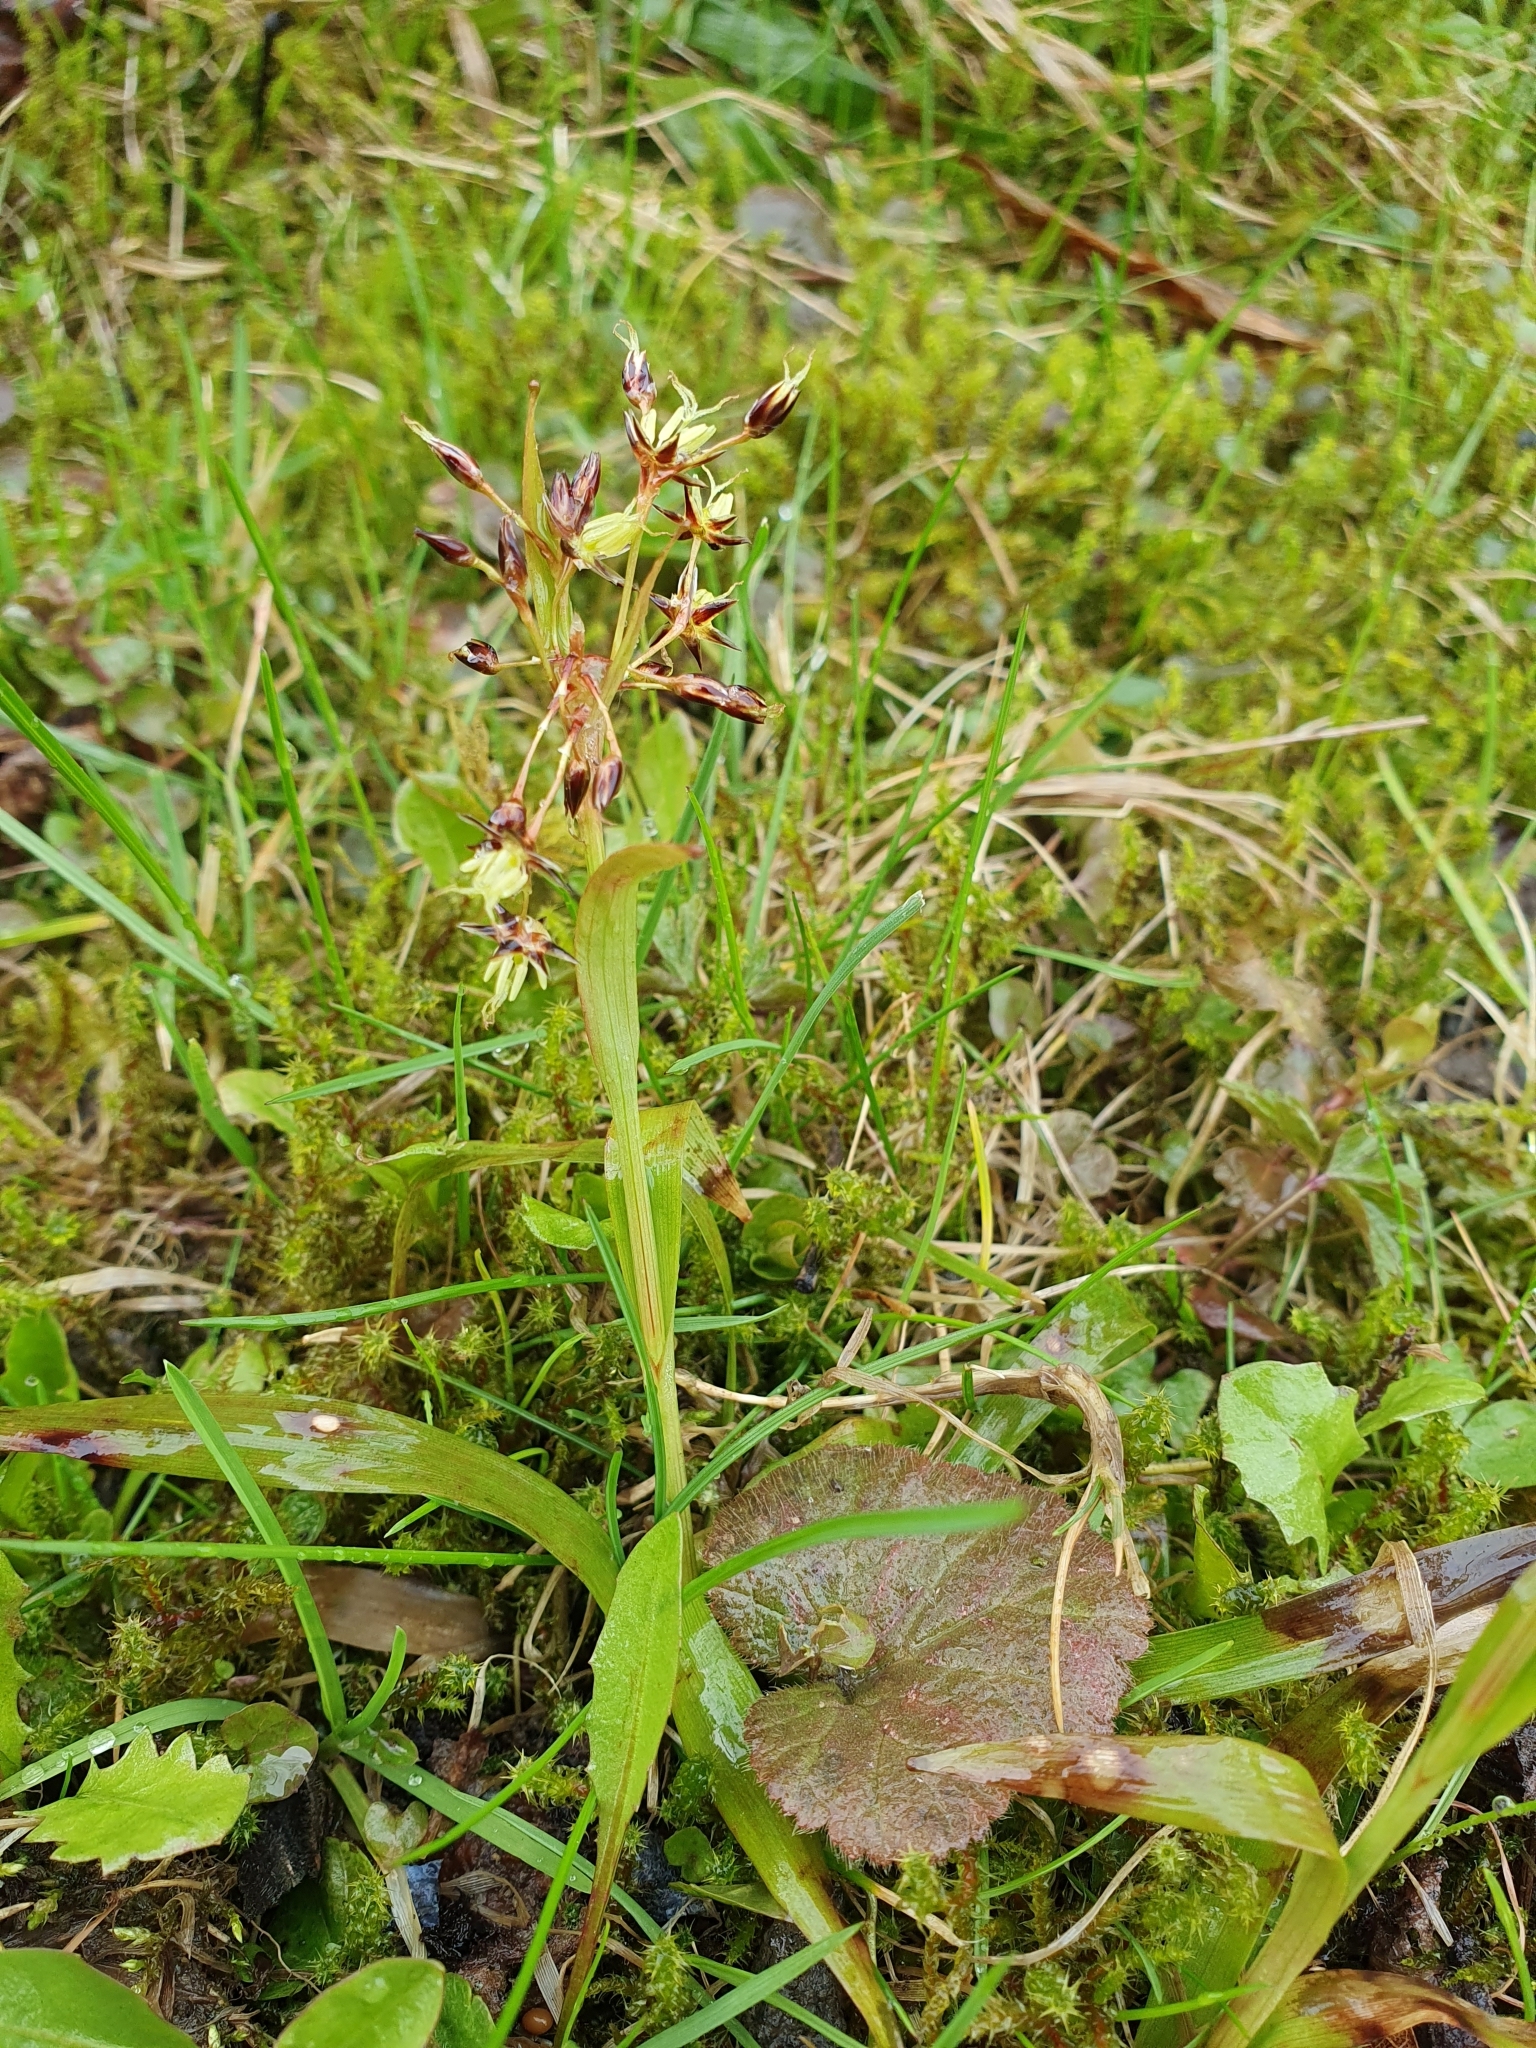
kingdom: Plantae
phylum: Tracheophyta
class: Liliopsida
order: Poales
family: Juncaceae
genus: Luzula
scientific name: Luzula pilosa
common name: Hairy wood-rush
